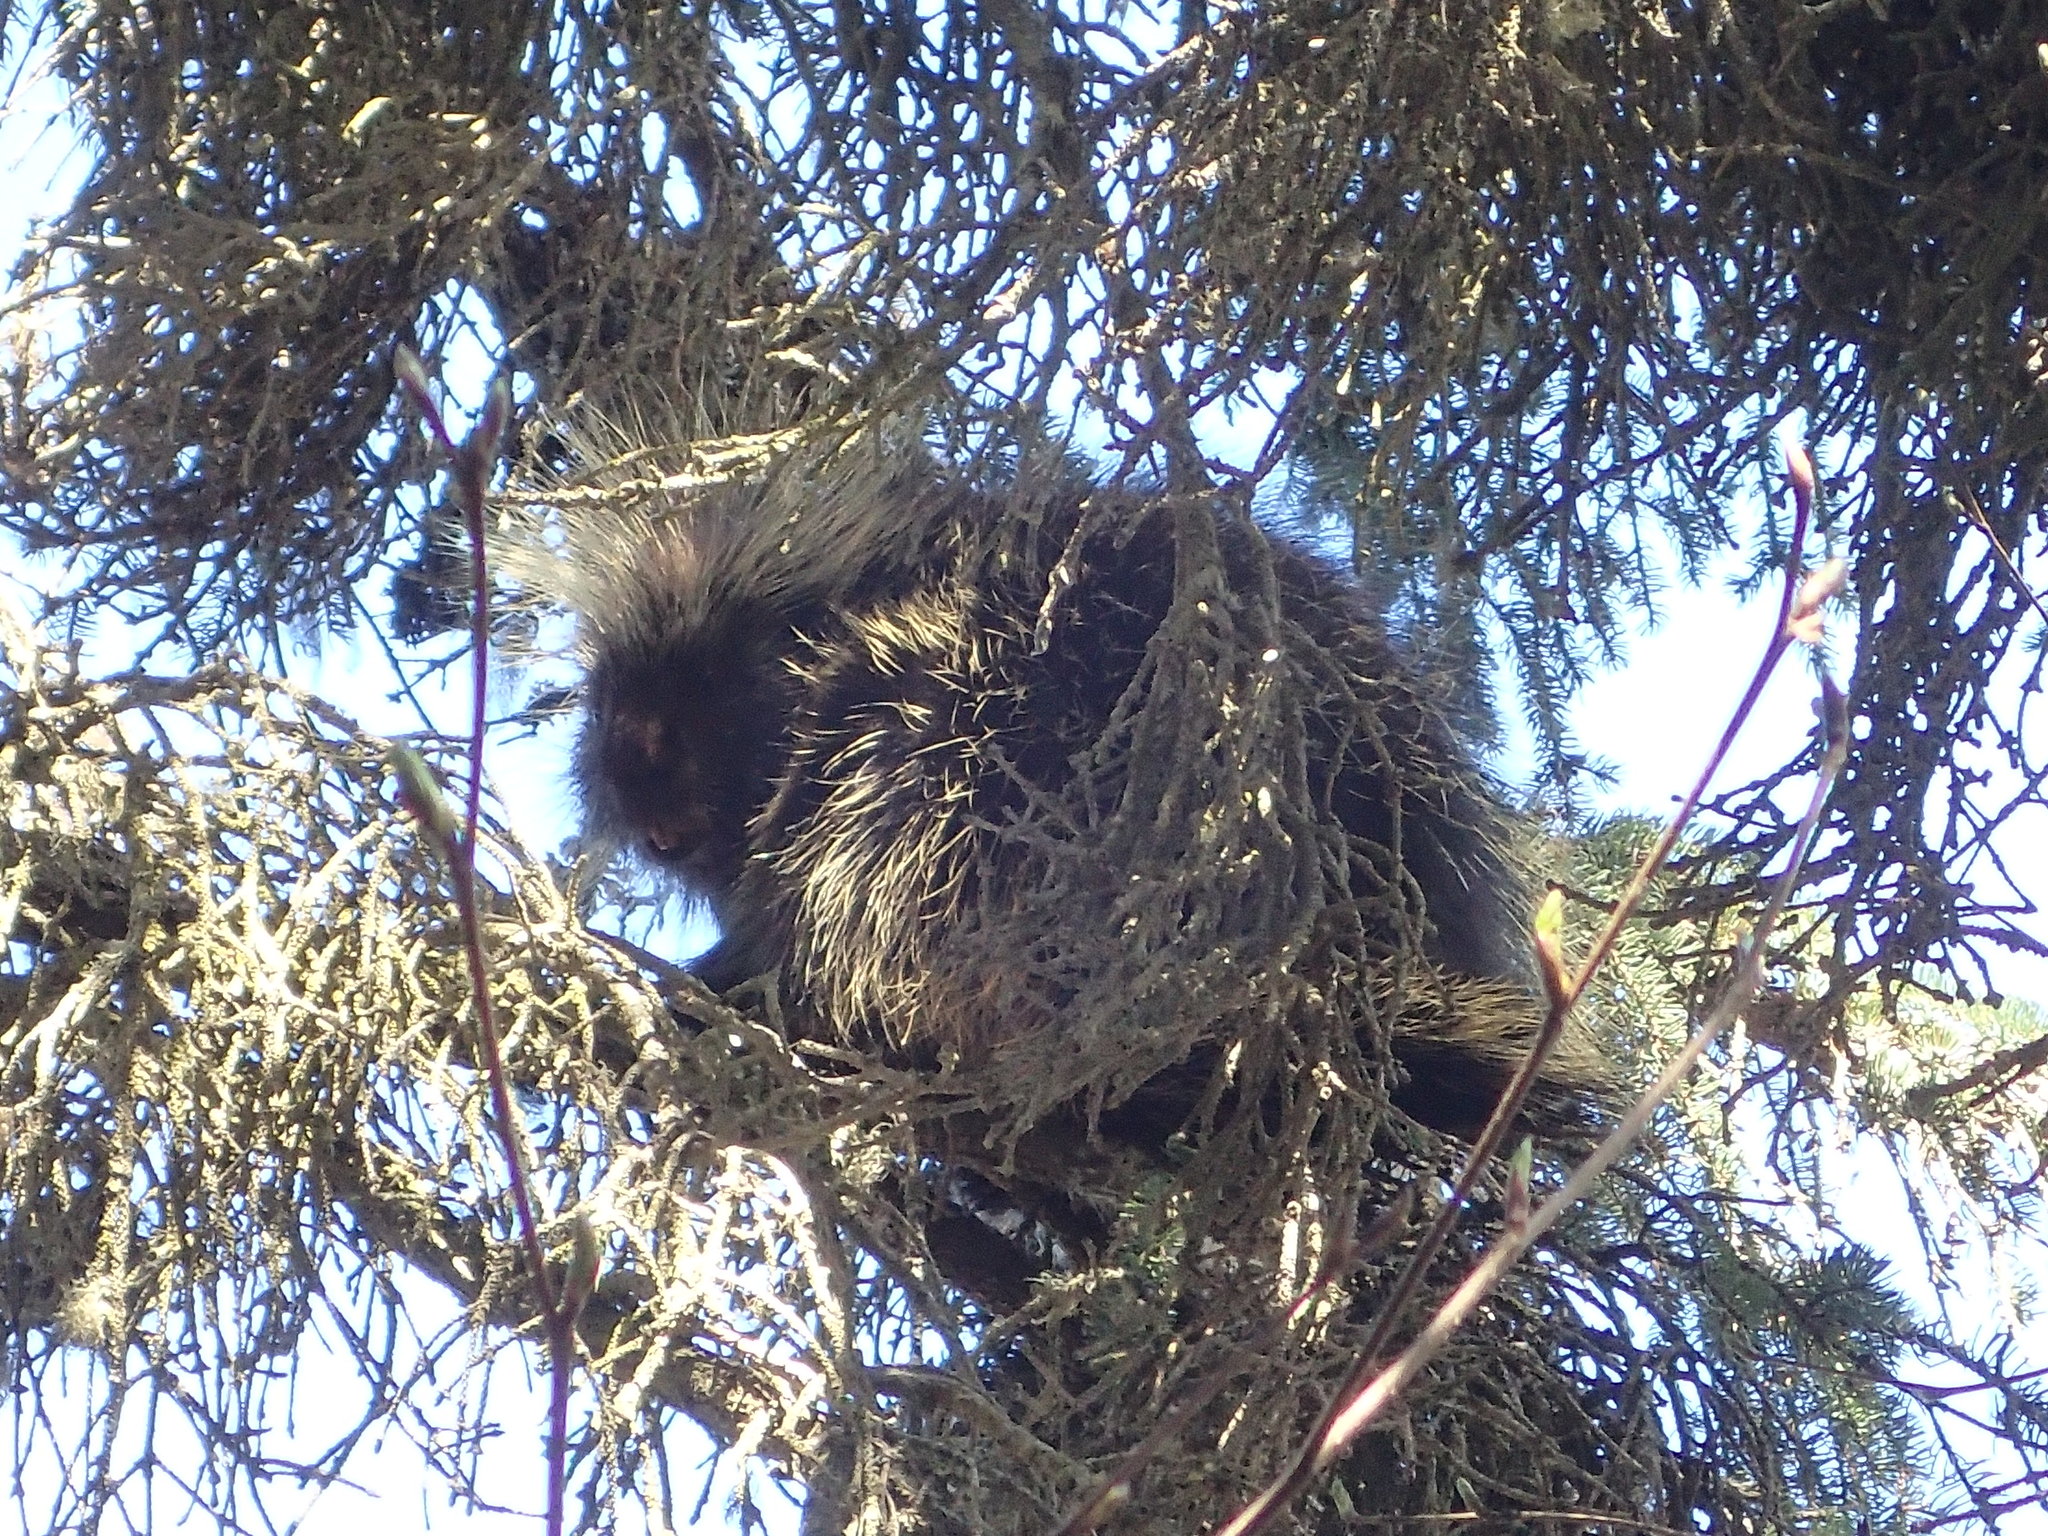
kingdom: Animalia
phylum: Chordata
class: Mammalia
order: Rodentia
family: Erethizontidae
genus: Erethizon
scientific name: Erethizon dorsatus
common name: North american porcupine
